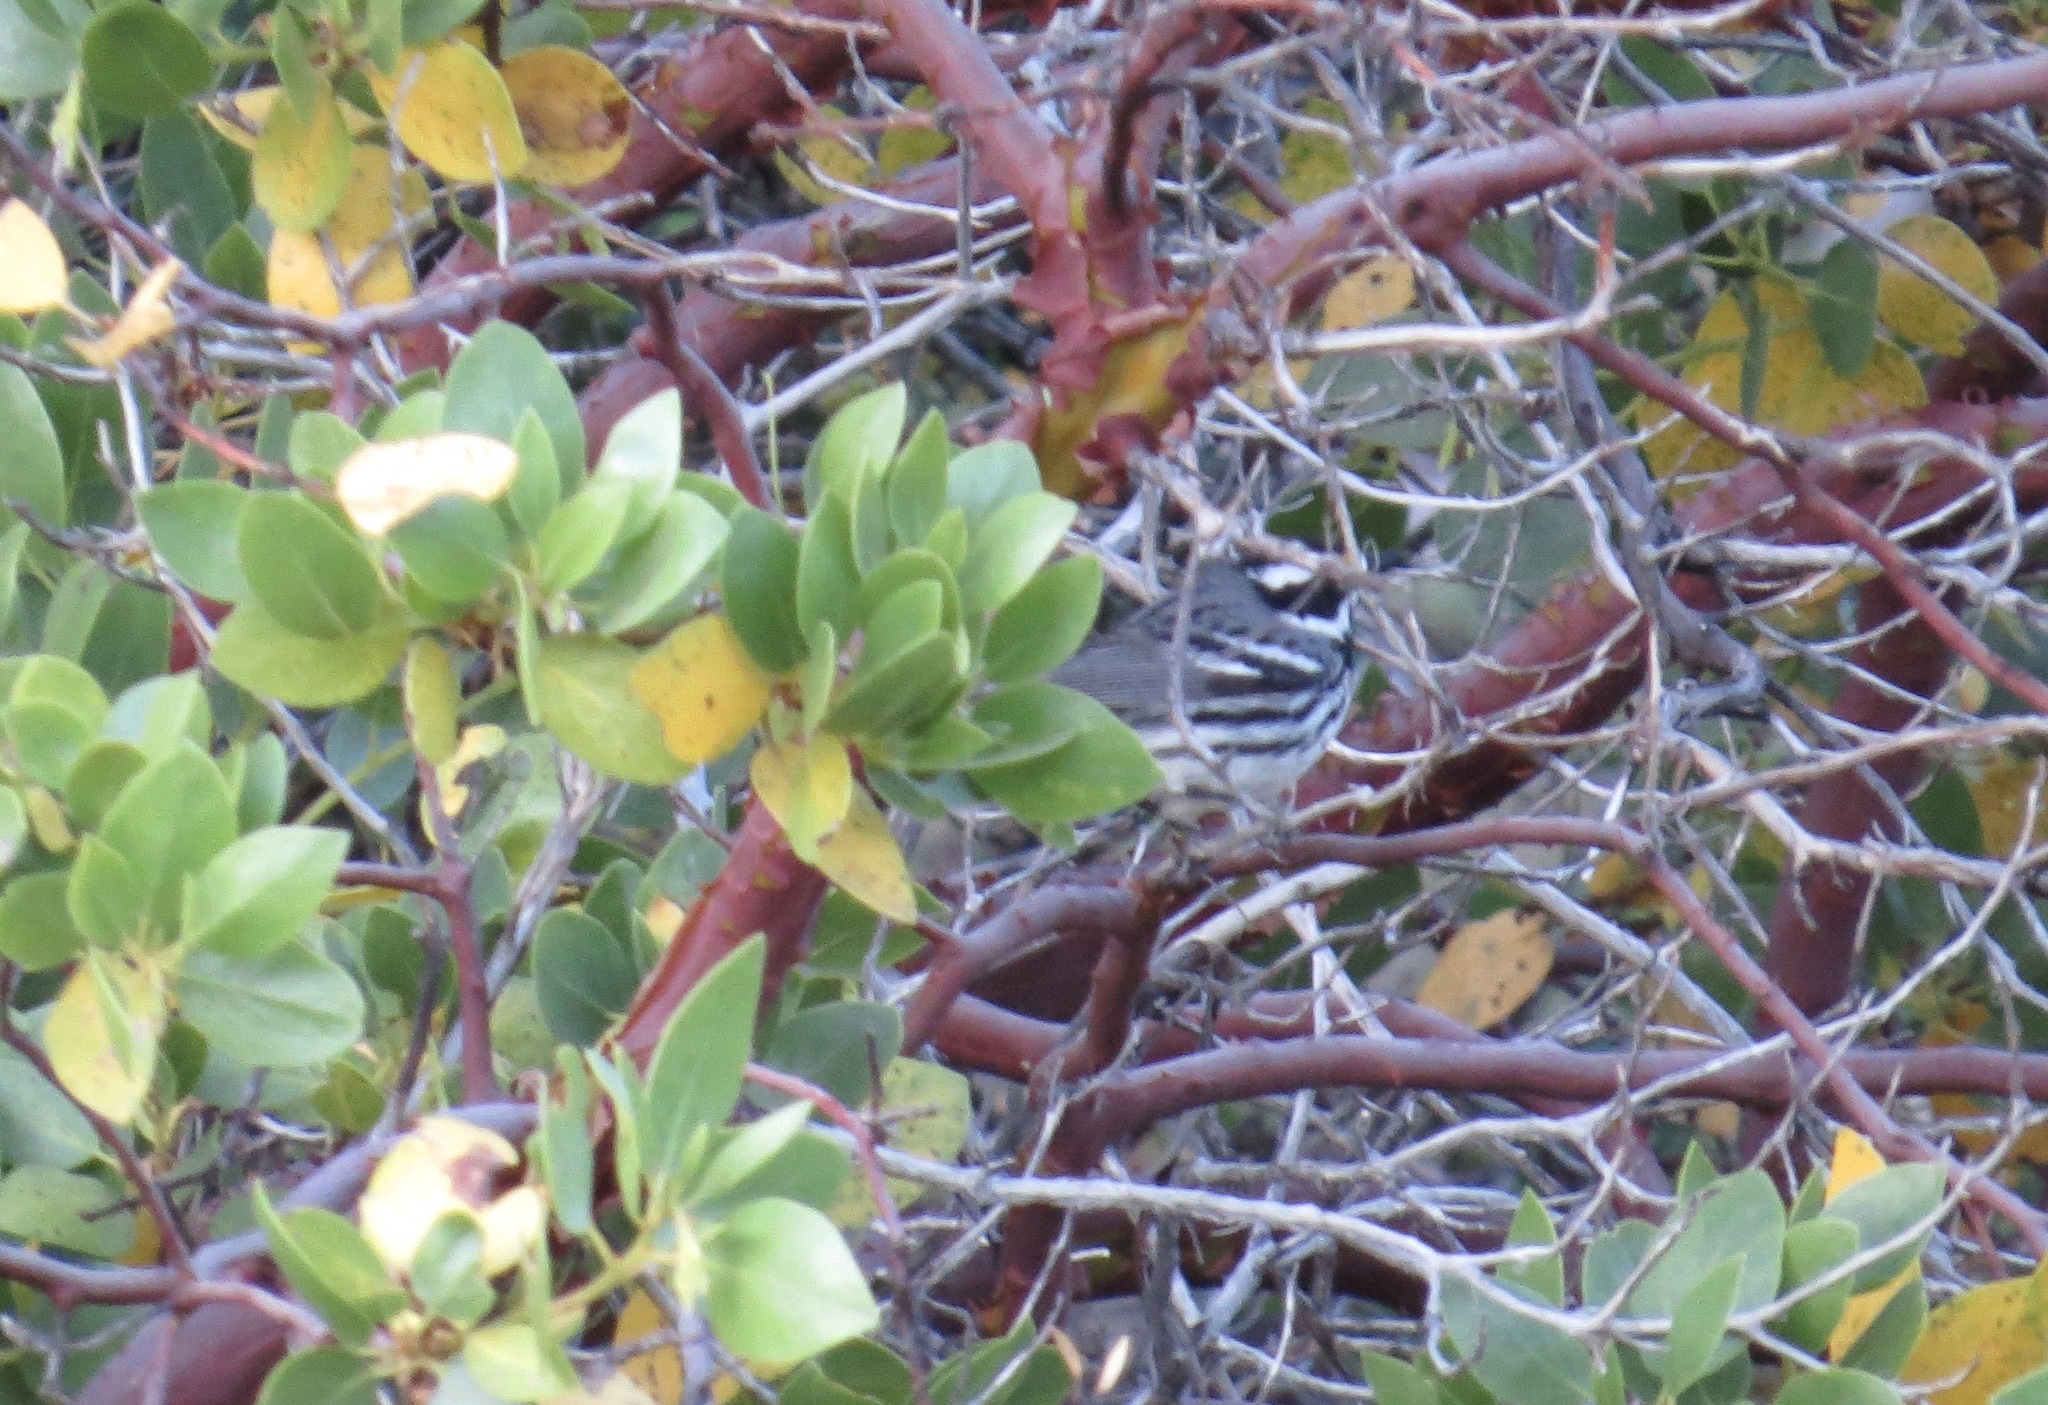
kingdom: Animalia
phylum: Chordata
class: Aves
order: Passeriformes
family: Parulidae
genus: Setophaga
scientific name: Setophaga nigrescens
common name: Black-throated gray warbler
